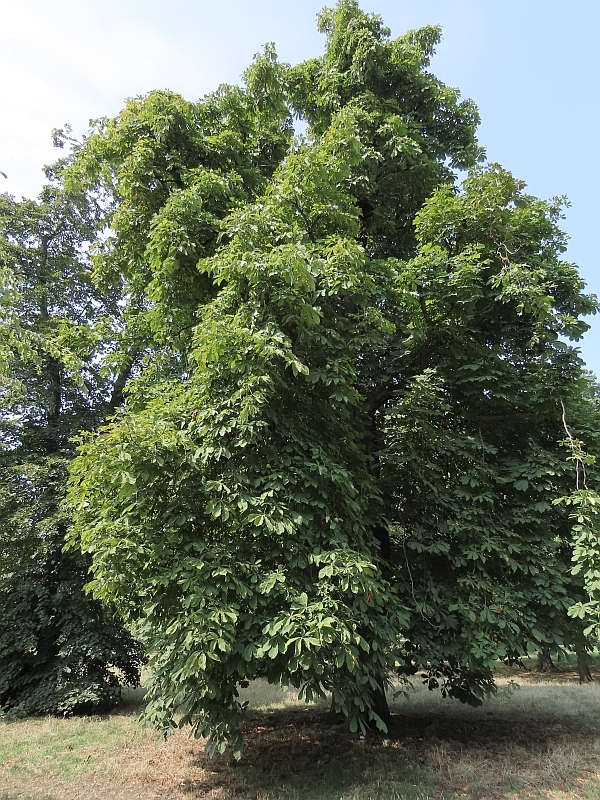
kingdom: Plantae
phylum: Tracheophyta
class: Magnoliopsida
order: Sapindales
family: Sapindaceae
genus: Aesculus
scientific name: Aesculus hippocastanum
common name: Horse-chestnut
